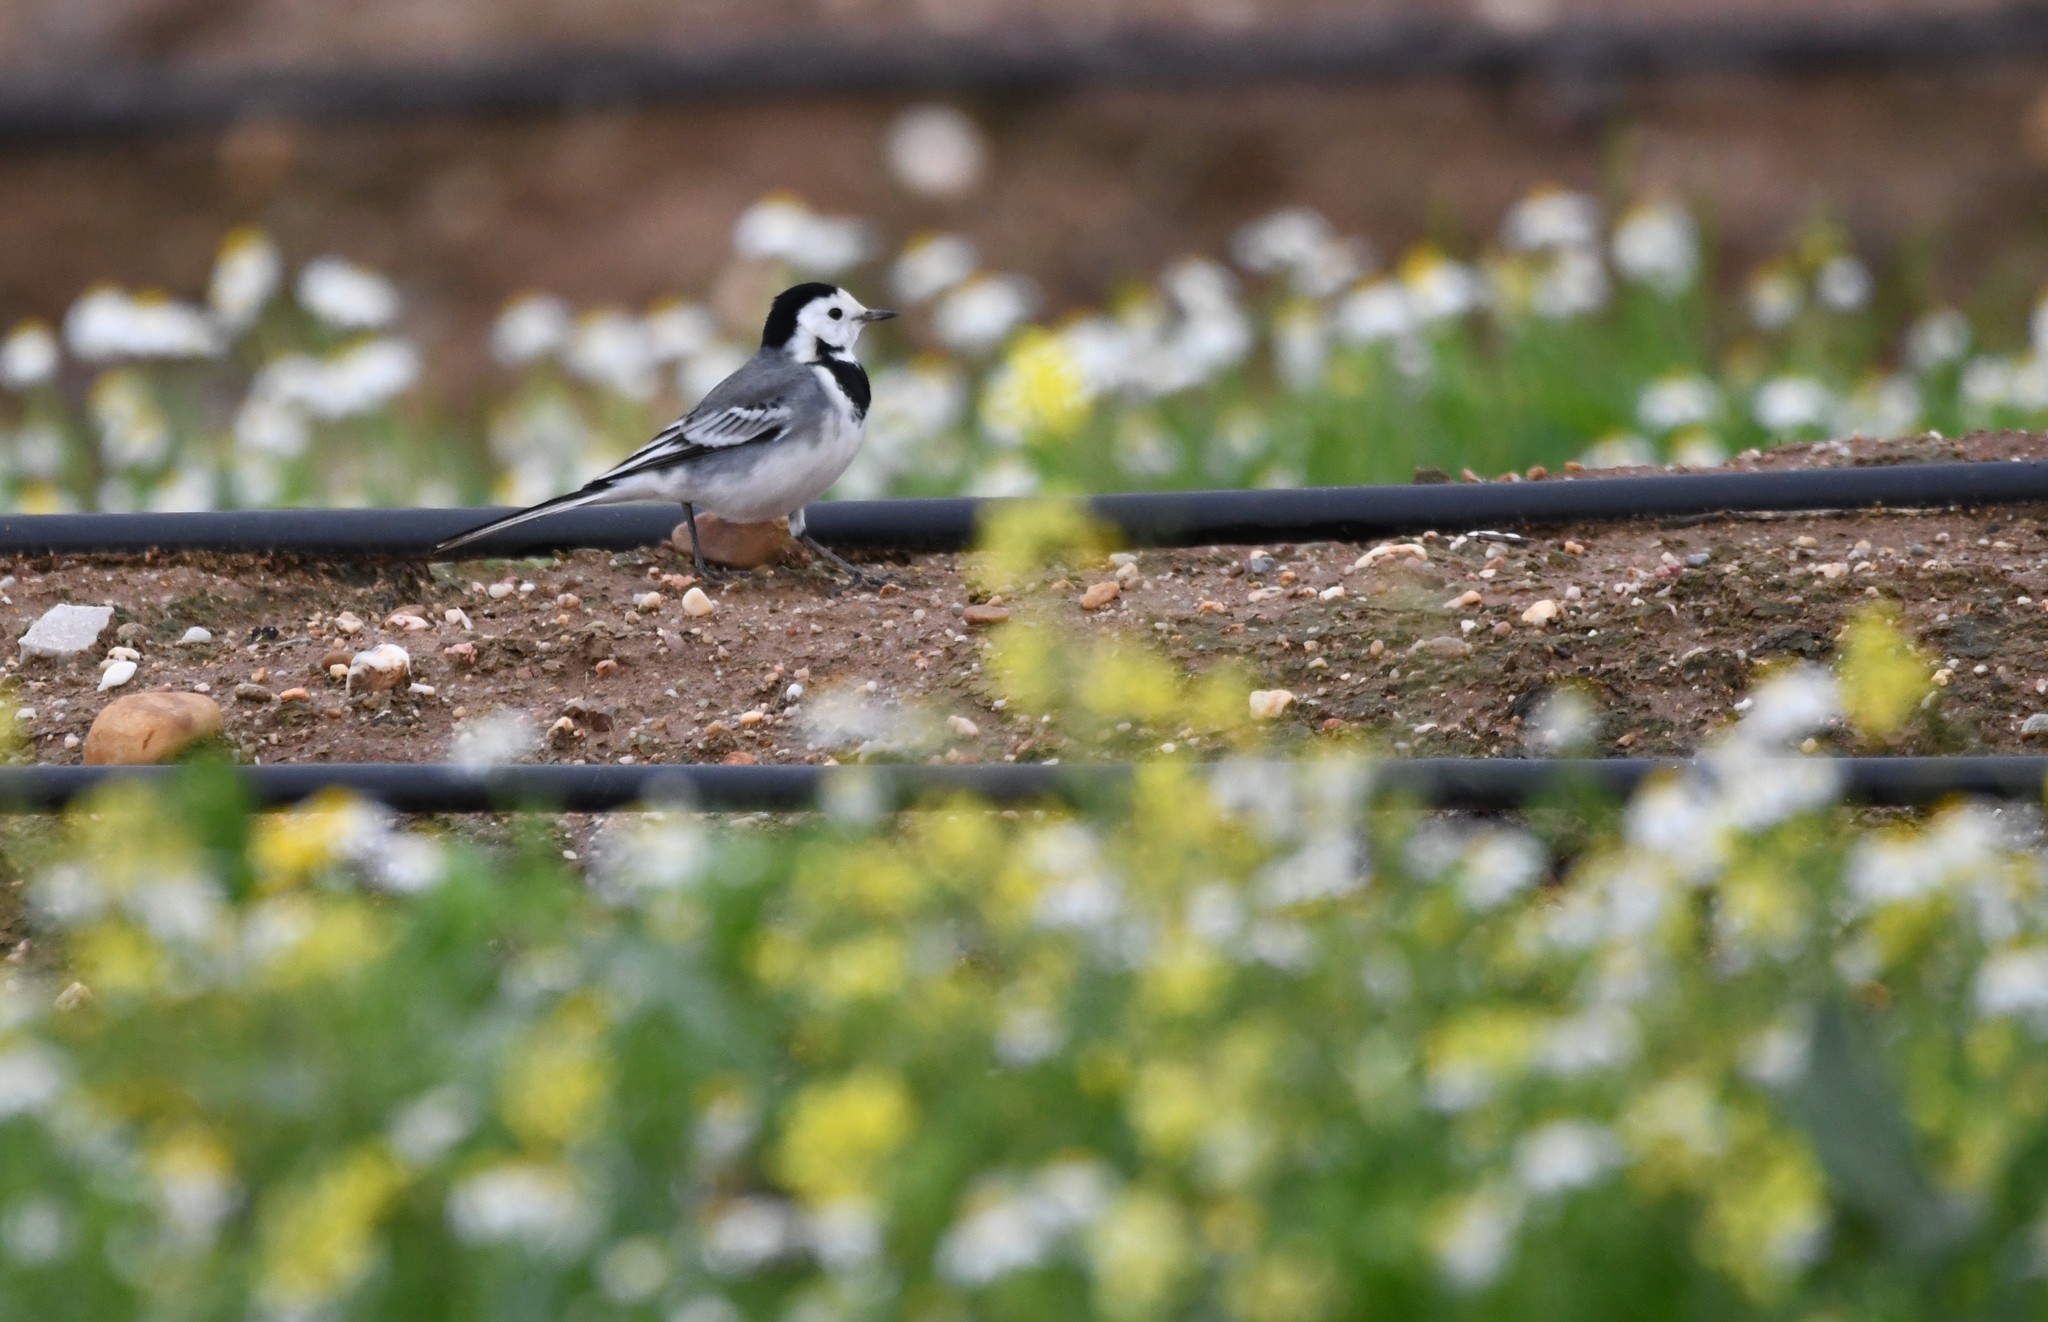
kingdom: Animalia
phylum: Chordata
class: Aves
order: Passeriformes
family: Motacillidae
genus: Motacilla
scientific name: Motacilla alba
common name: White wagtail
